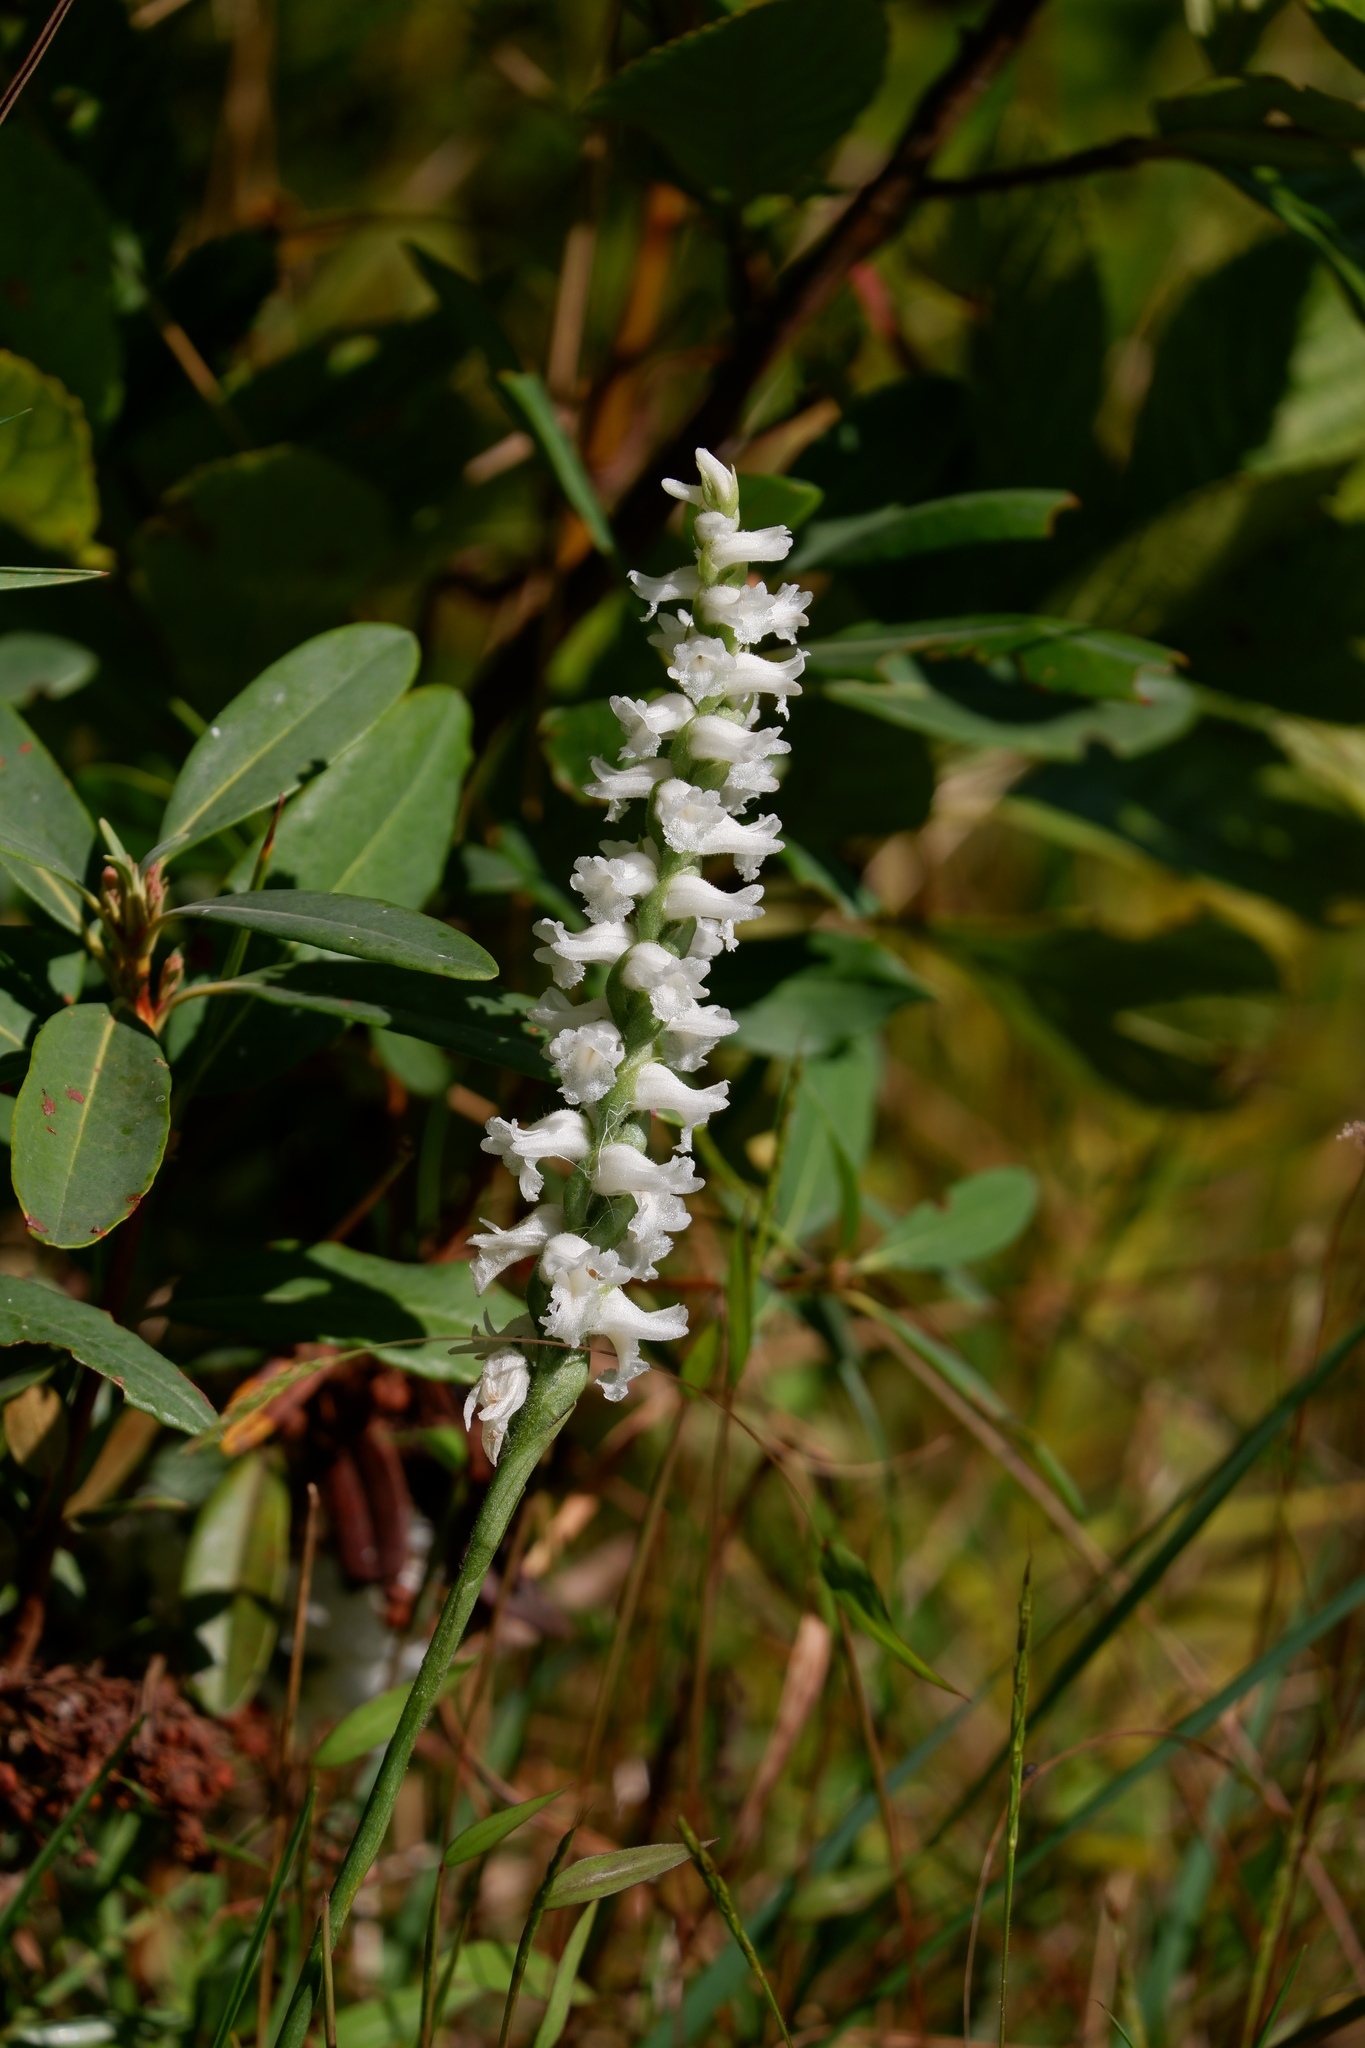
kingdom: Plantae
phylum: Tracheophyta
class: Liliopsida
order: Asparagales
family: Orchidaceae
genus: Spiranthes
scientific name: Spiranthes arcisepala
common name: Appalachian ladies'-tresses
